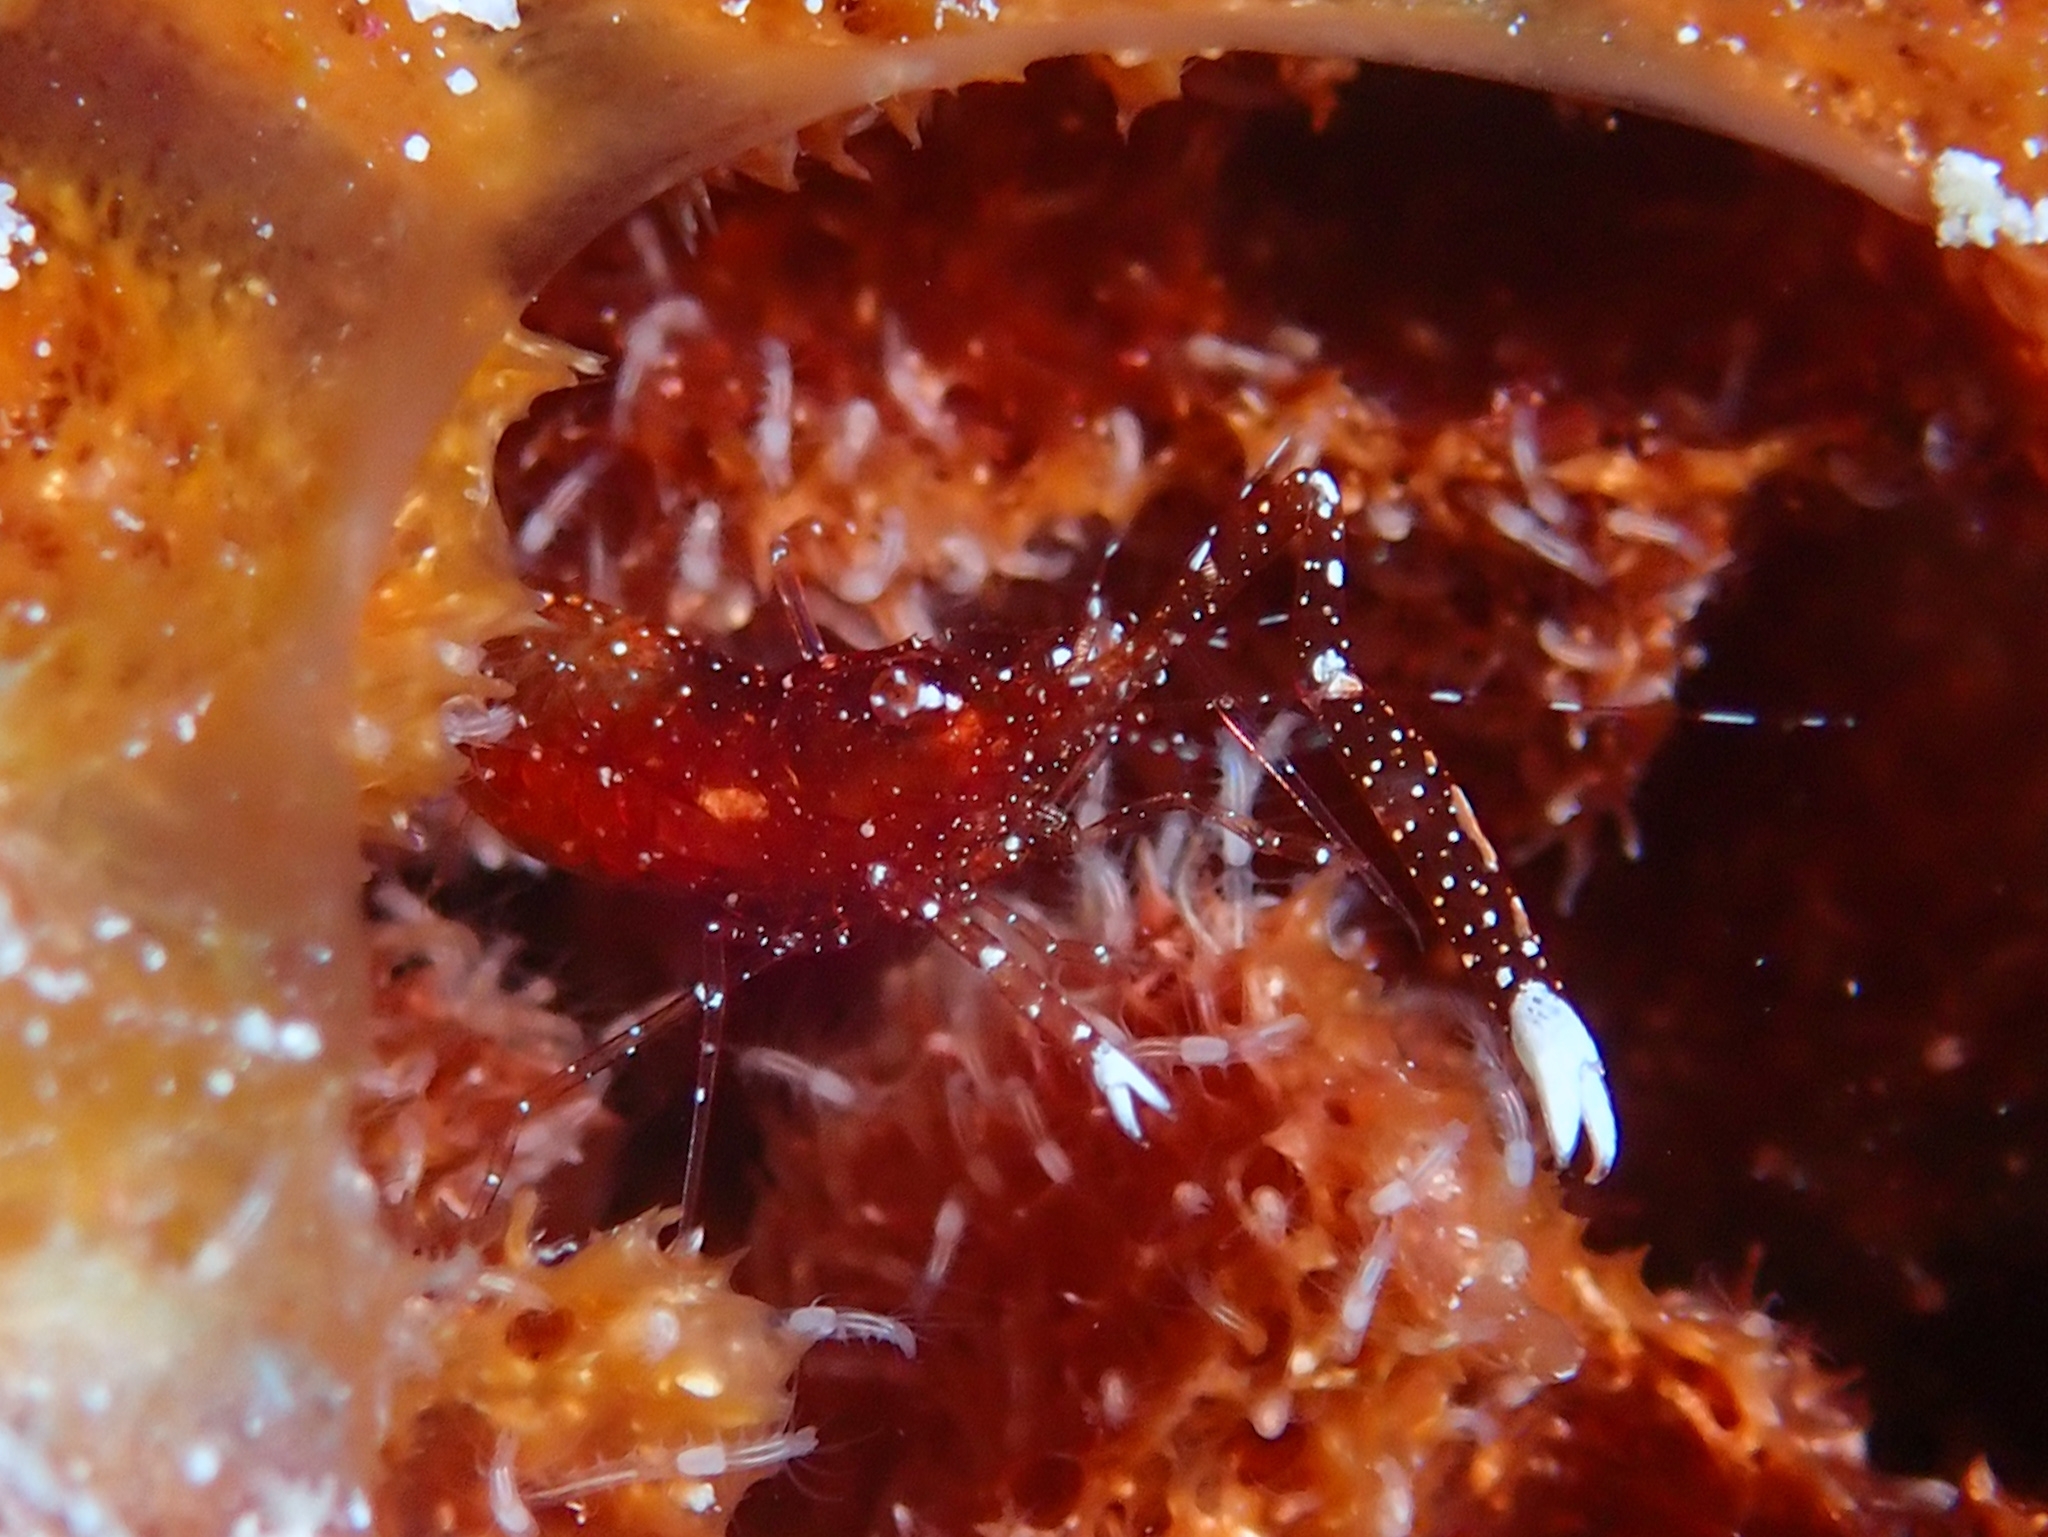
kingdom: Animalia
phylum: Arthropoda
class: Malacostraca
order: Decapoda
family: Palaemonidae
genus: Periclimenes
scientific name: Periclimenes harringtoni
